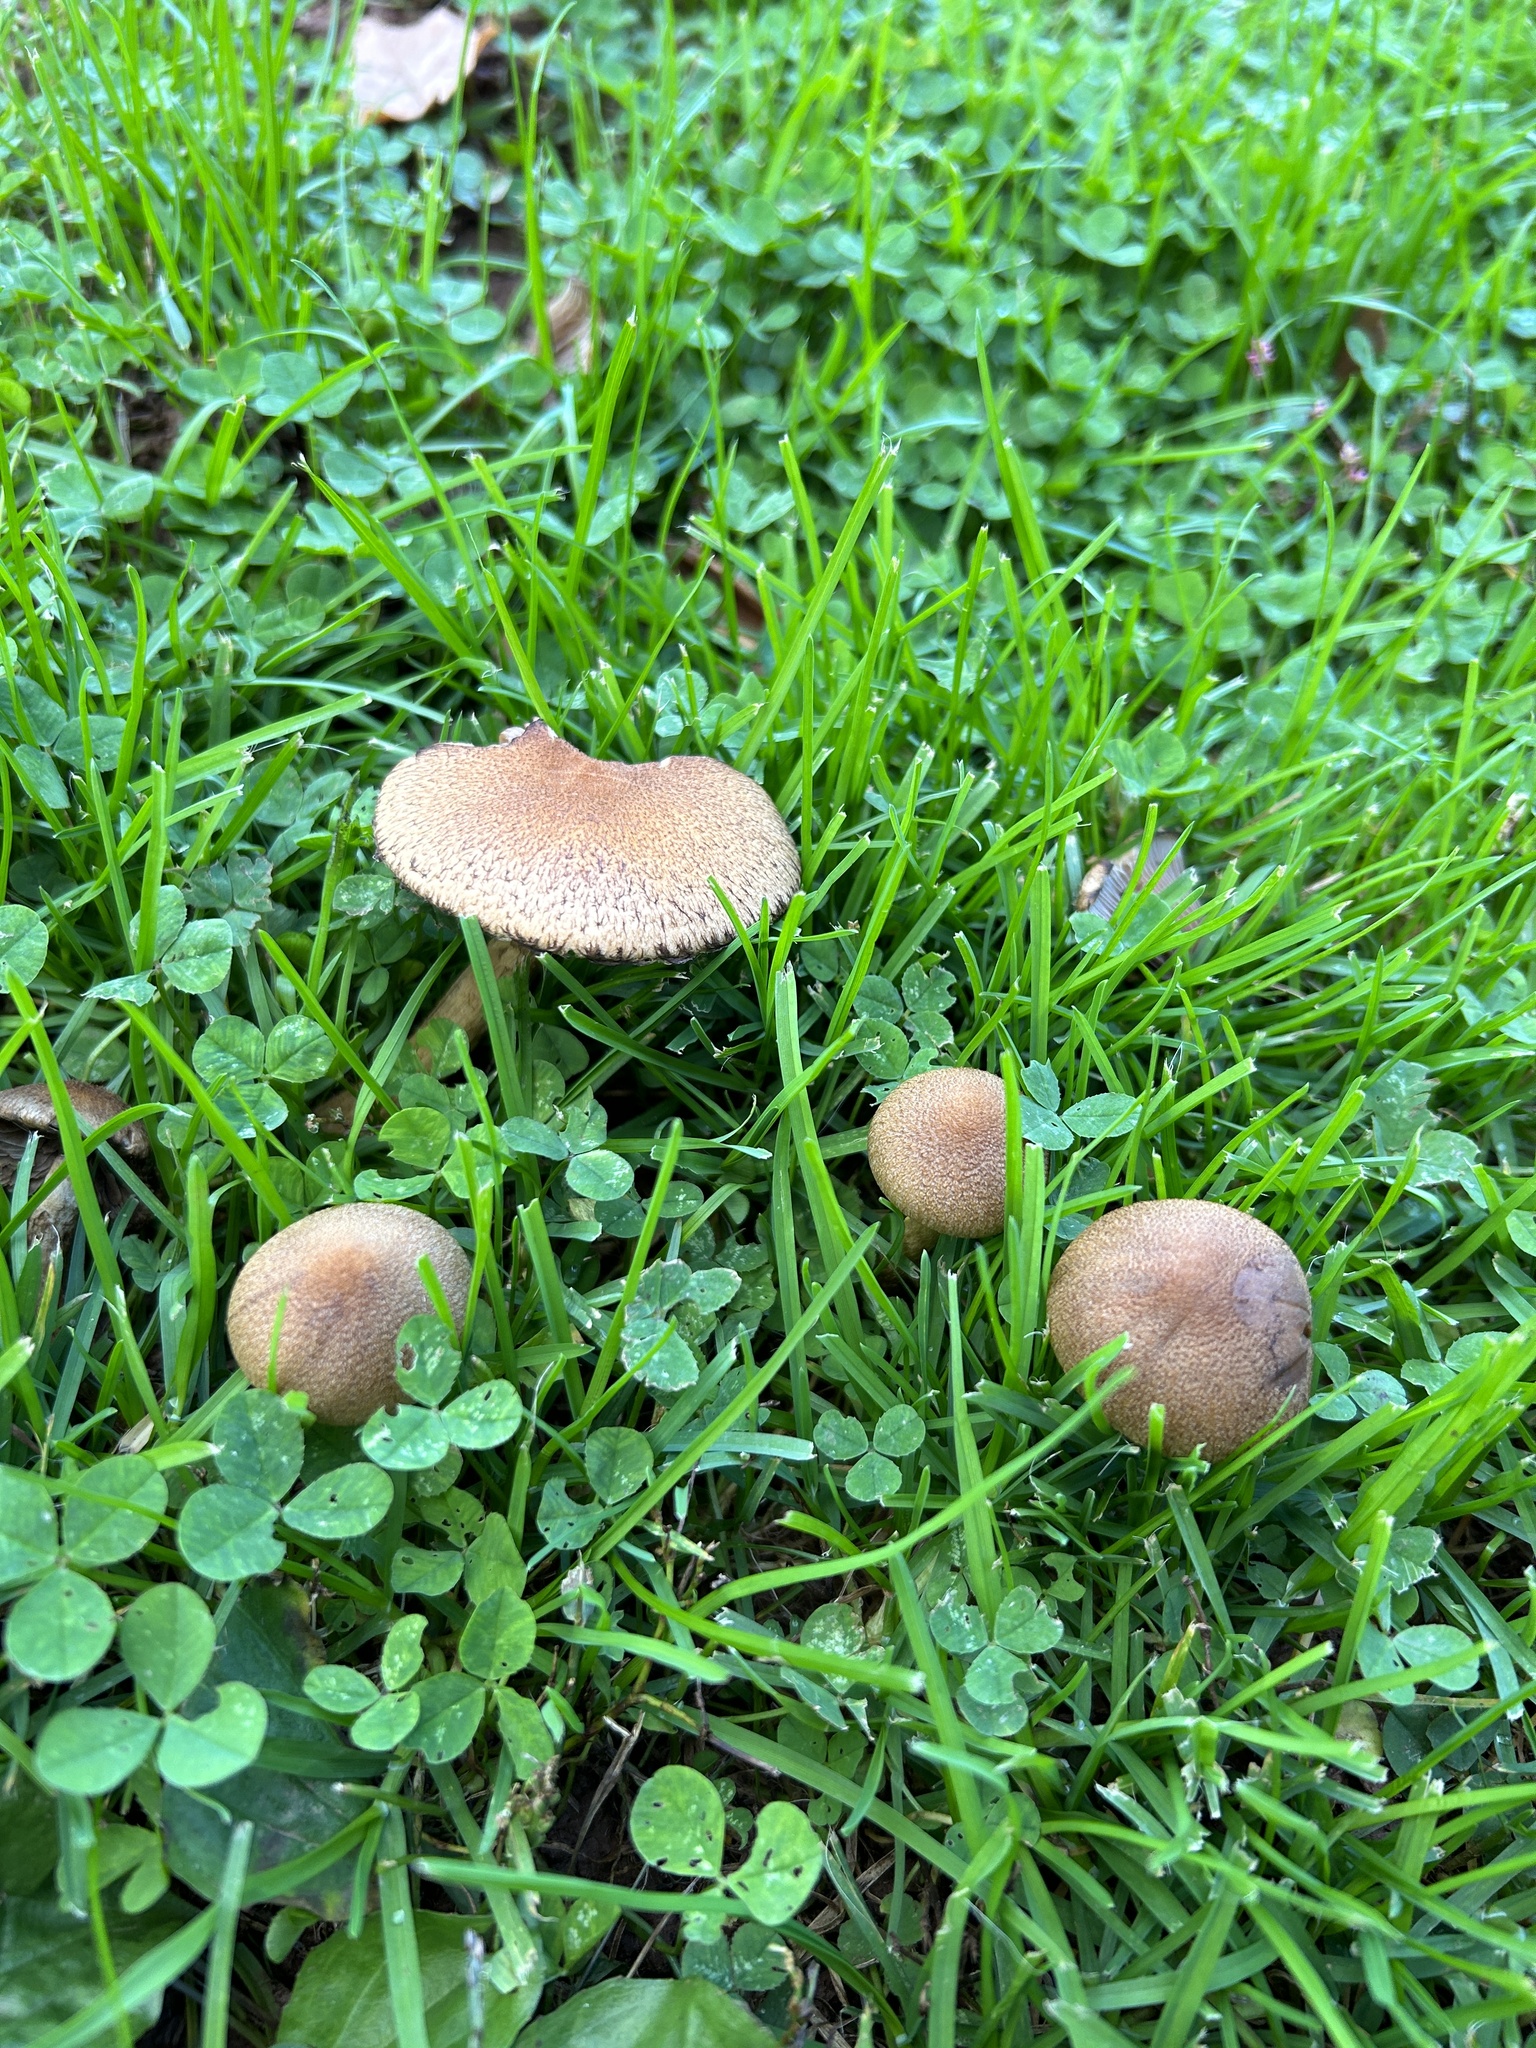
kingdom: Fungi
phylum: Basidiomycota
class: Agaricomycetes
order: Agaricales
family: Psathyrellaceae
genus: Lacrymaria
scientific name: Lacrymaria lacrymabunda
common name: Weeping widow
